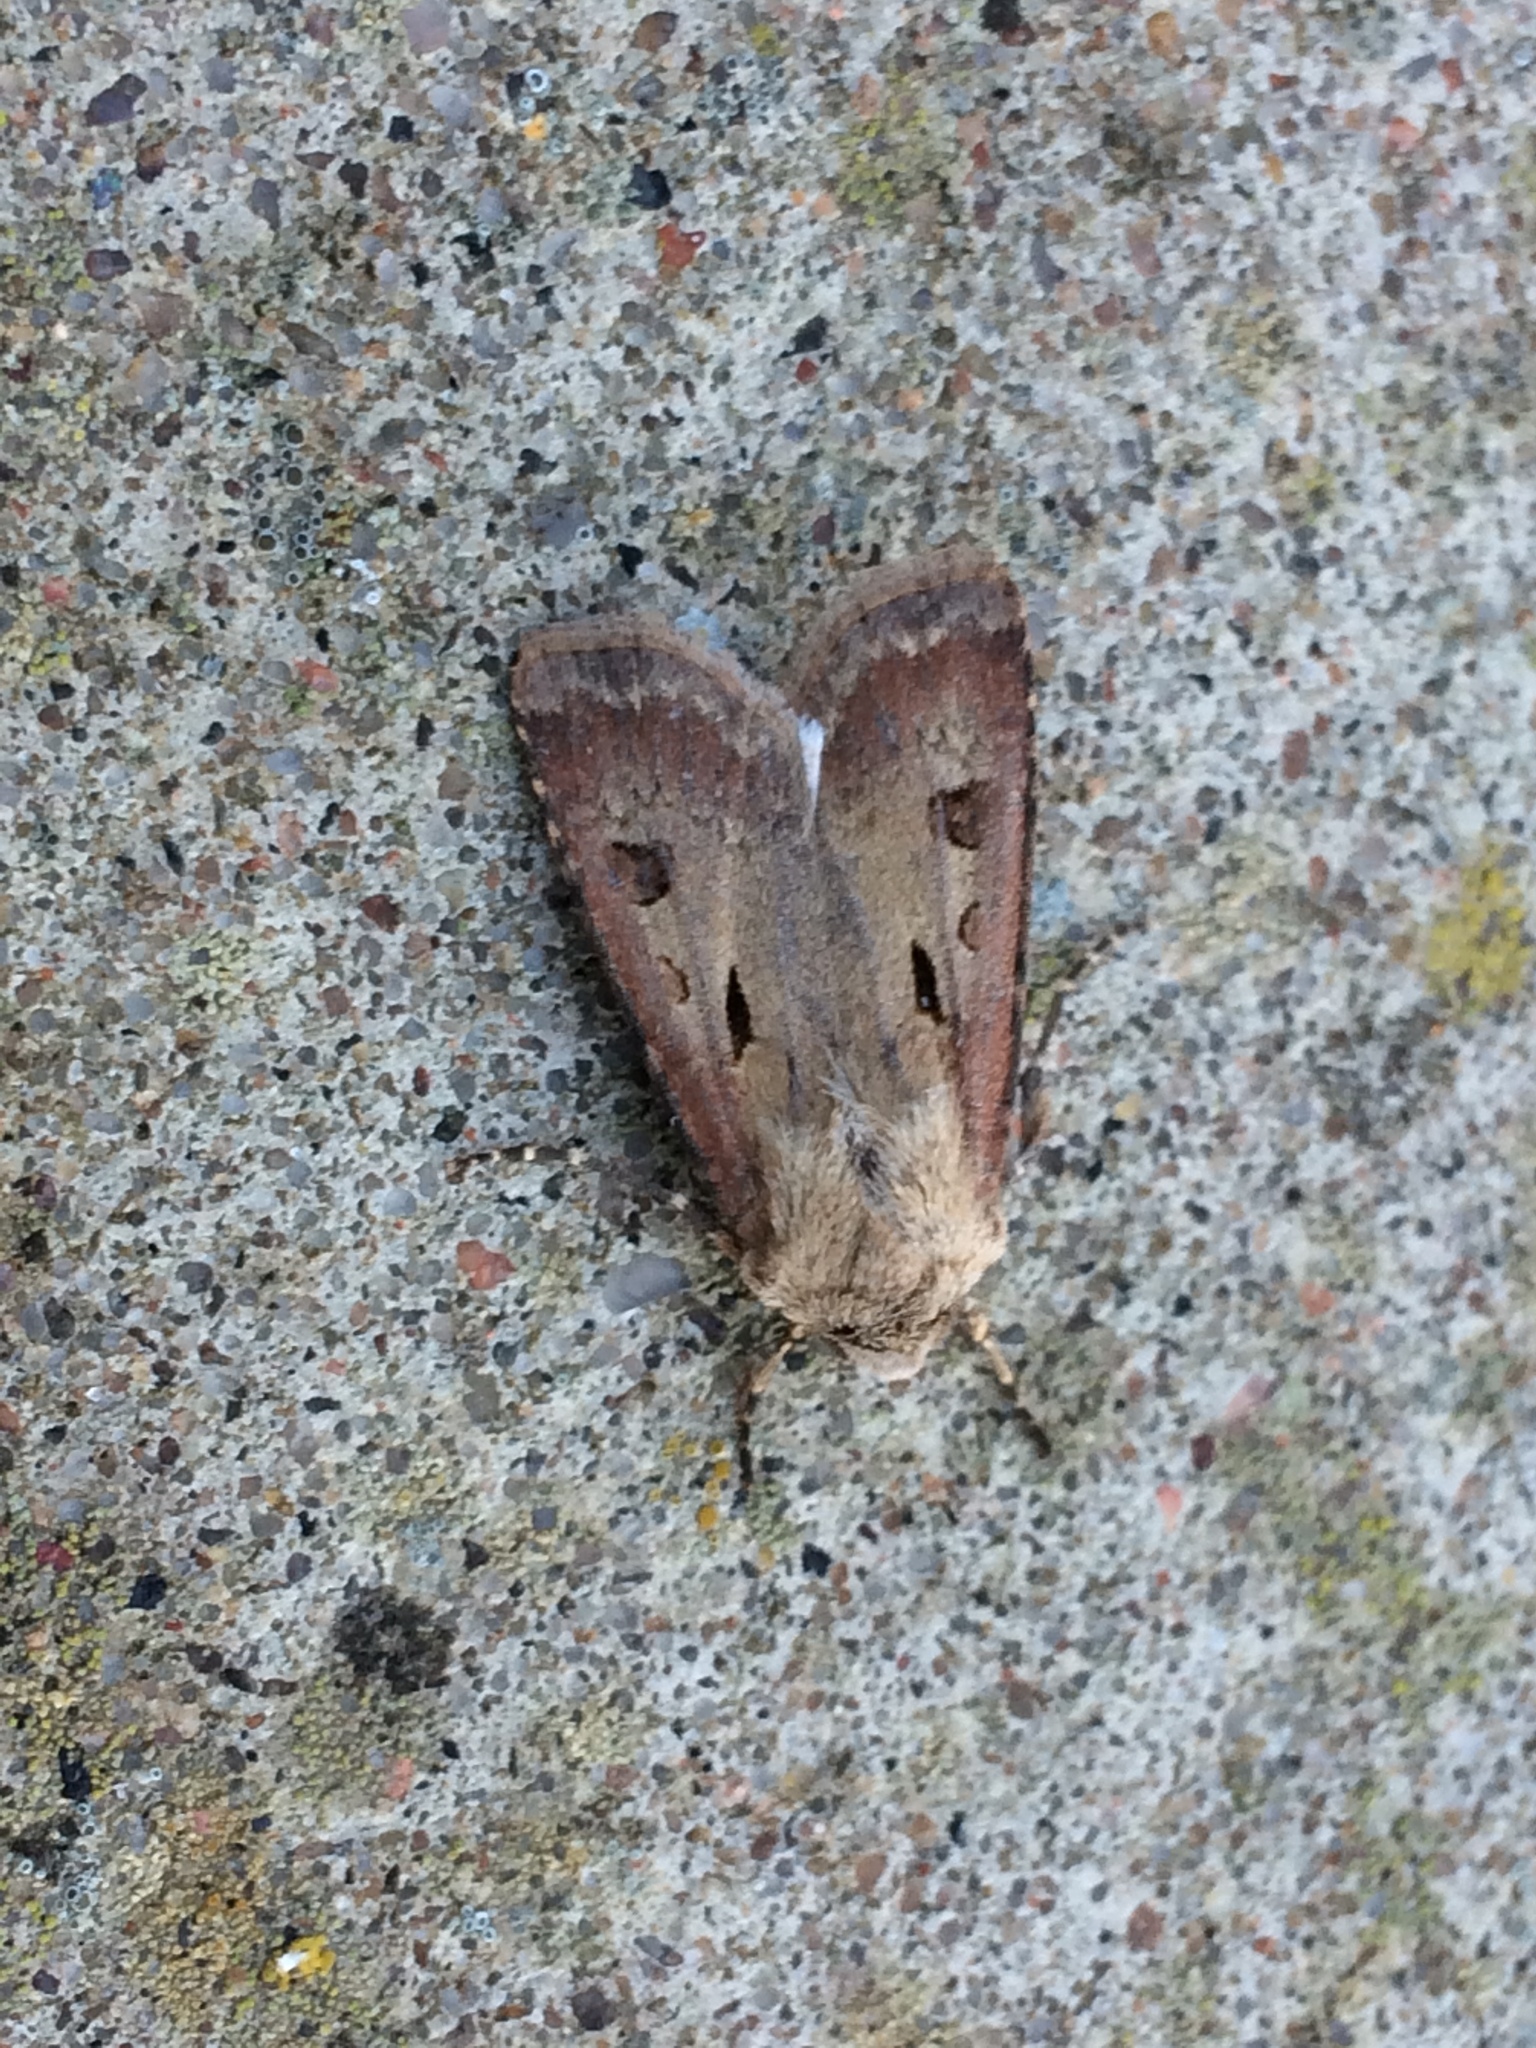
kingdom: Animalia
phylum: Arthropoda
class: Insecta
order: Lepidoptera
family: Noctuidae
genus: Agrotis
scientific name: Agrotis exclamationis
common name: Heart and dart
